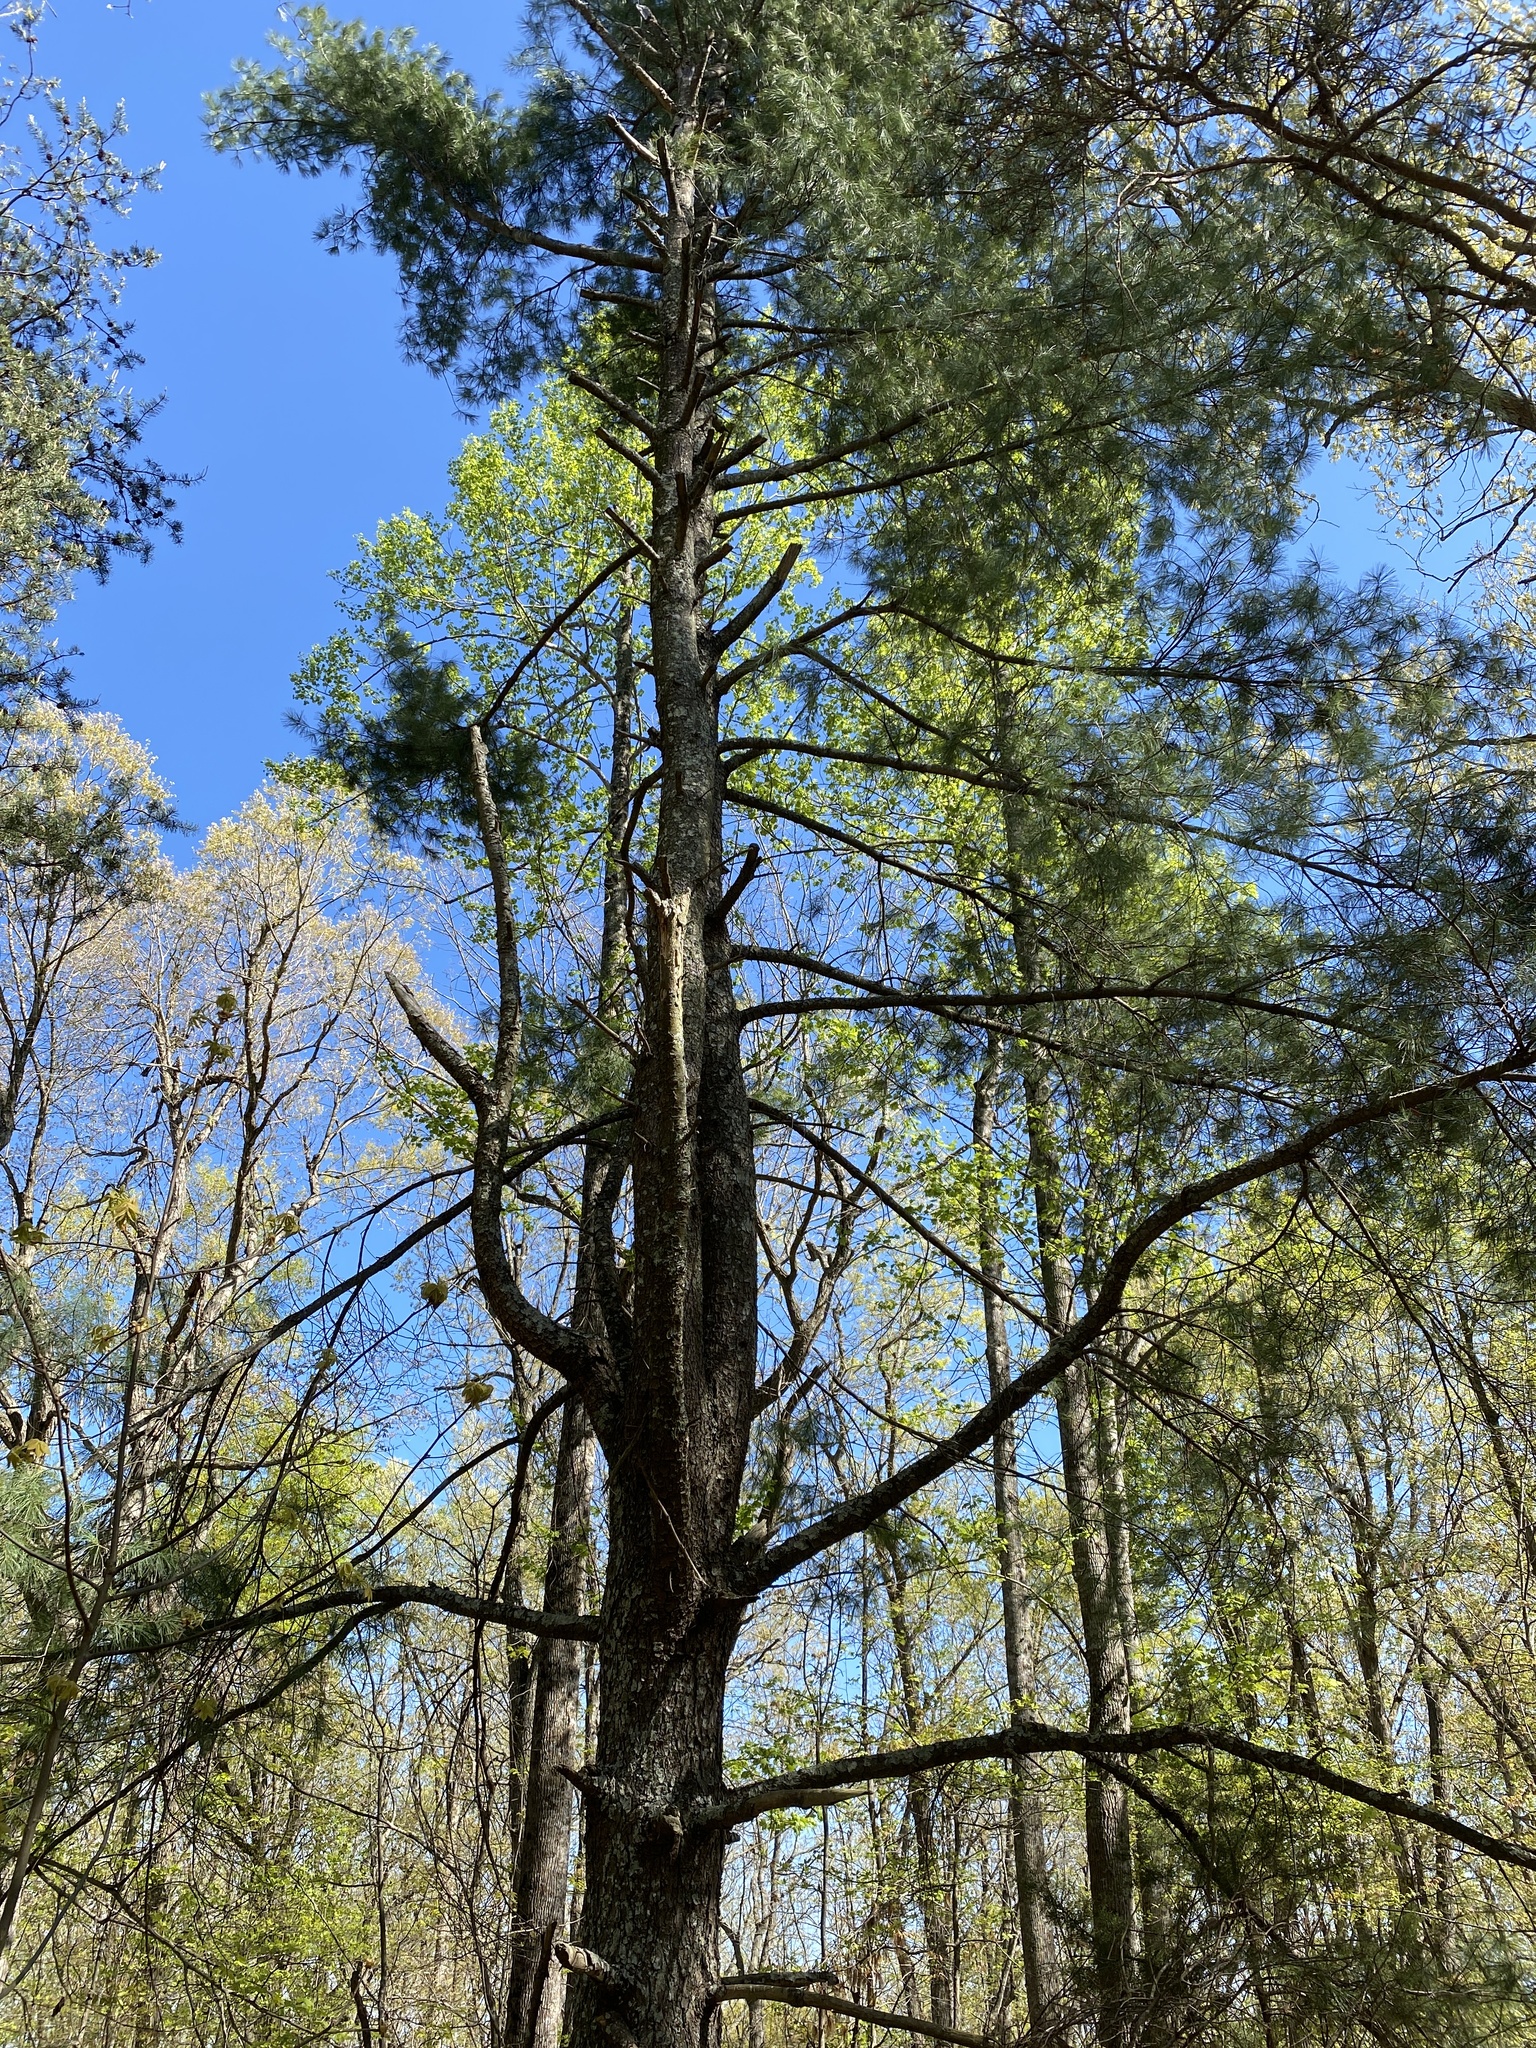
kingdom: Plantae
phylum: Tracheophyta
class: Pinopsida
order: Pinales
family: Pinaceae
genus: Pinus
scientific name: Pinus strobus
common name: Weymouth pine
